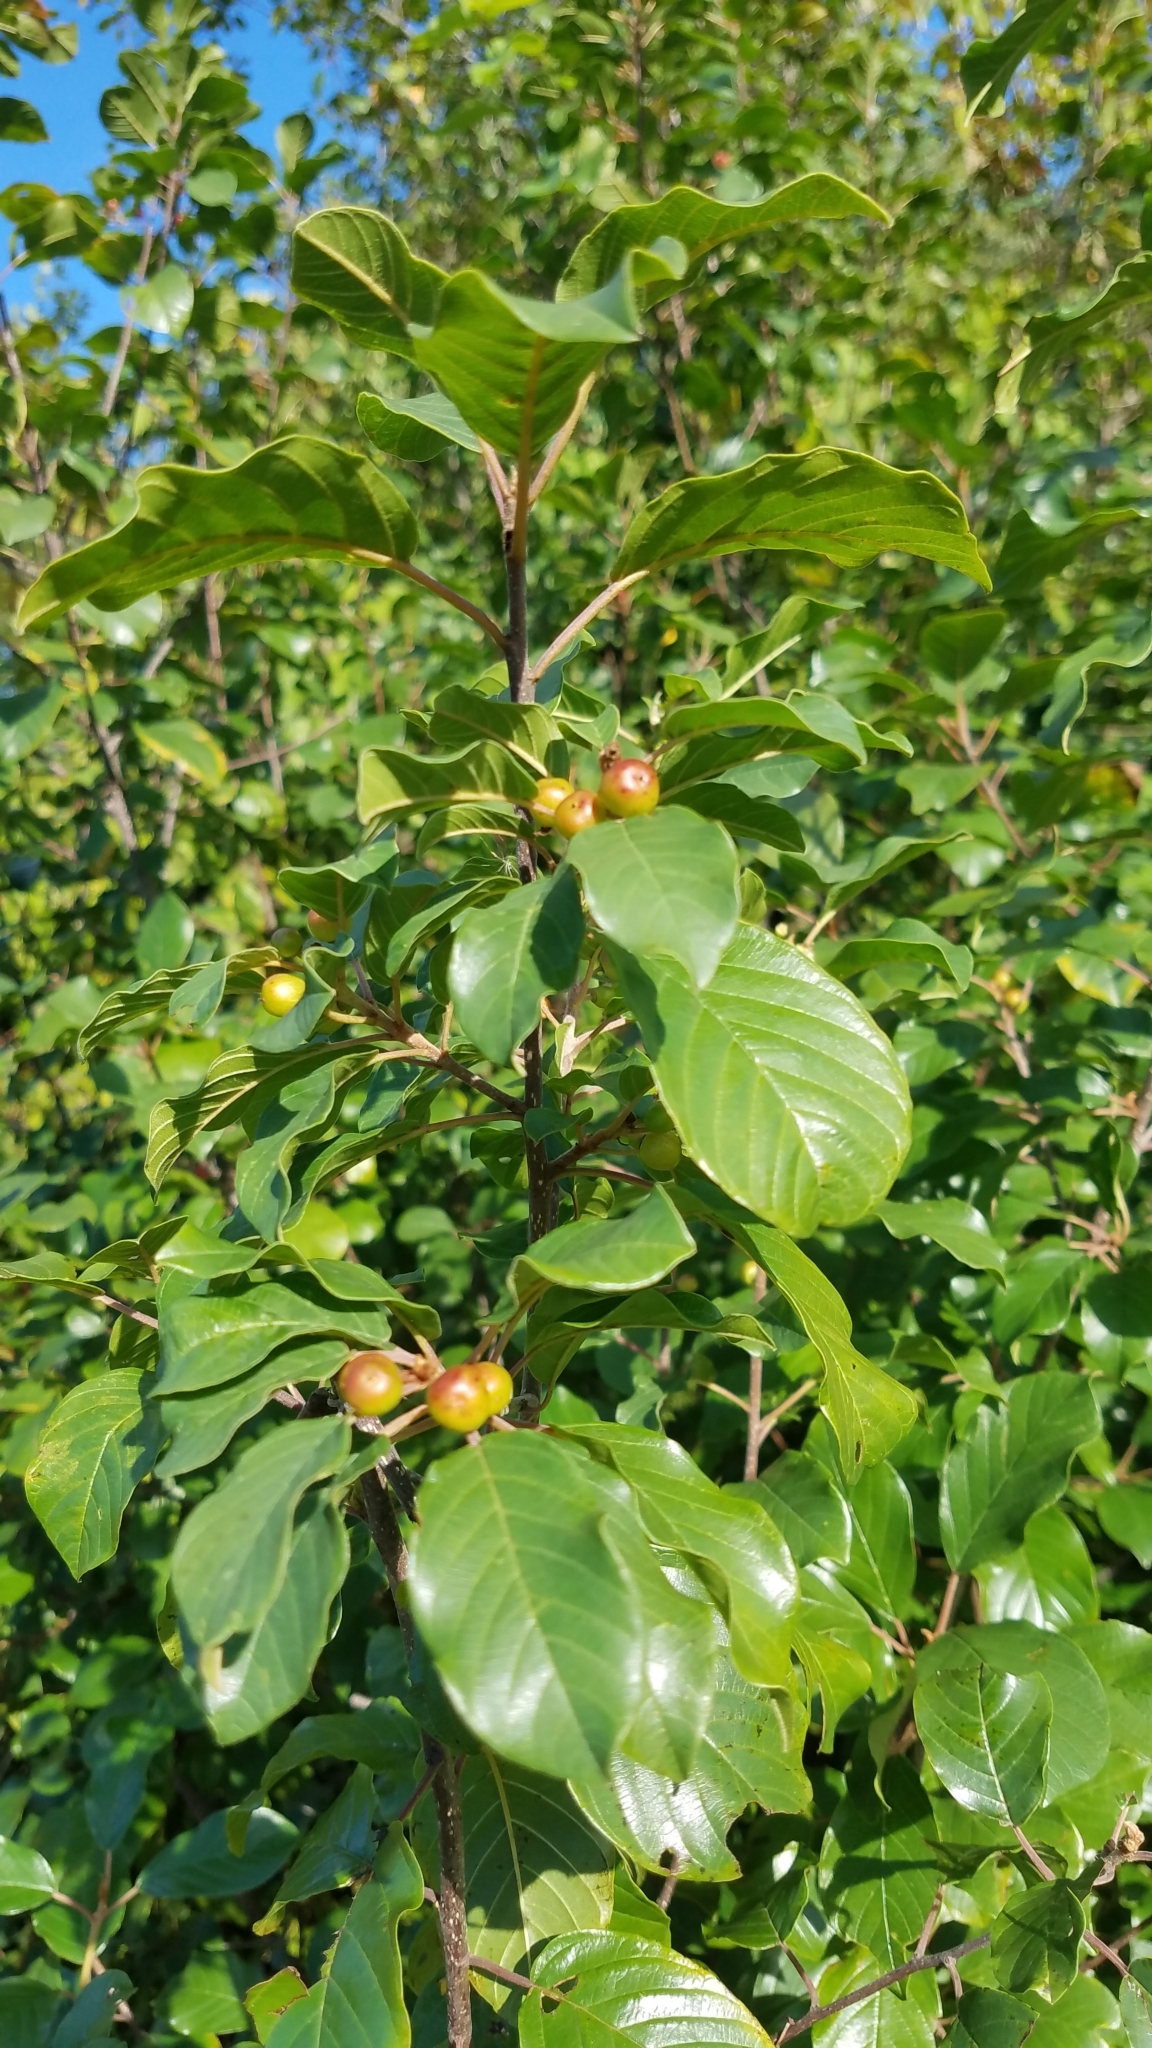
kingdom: Plantae
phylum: Tracheophyta
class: Magnoliopsida
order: Rosales
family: Rhamnaceae
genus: Frangula
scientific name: Frangula alnus
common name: Alder buckthorn
